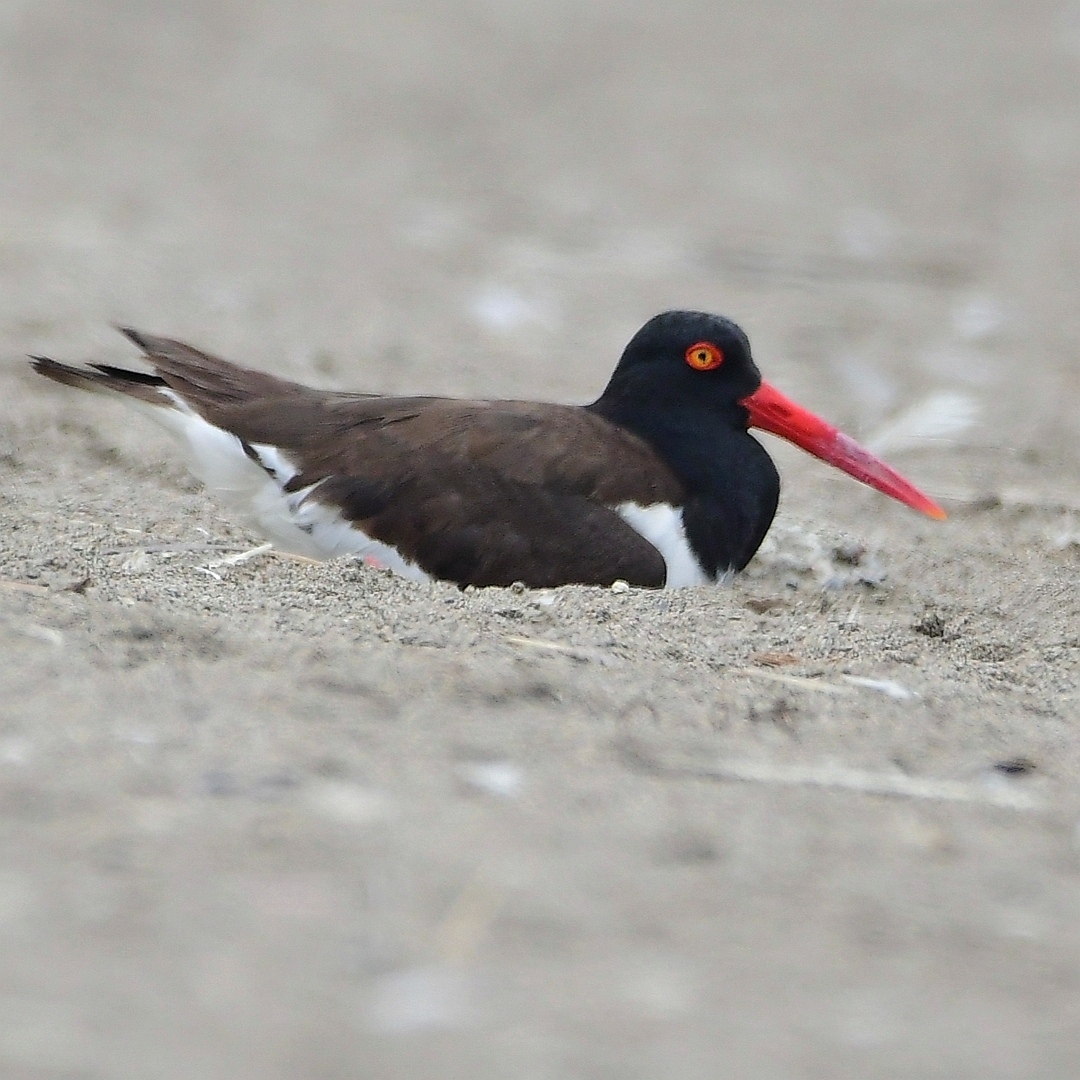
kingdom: Animalia
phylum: Chordata
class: Aves
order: Charadriiformes
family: Haematopodidae
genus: Haematopus
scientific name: Haematopus palliatus
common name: American oystercatcher
